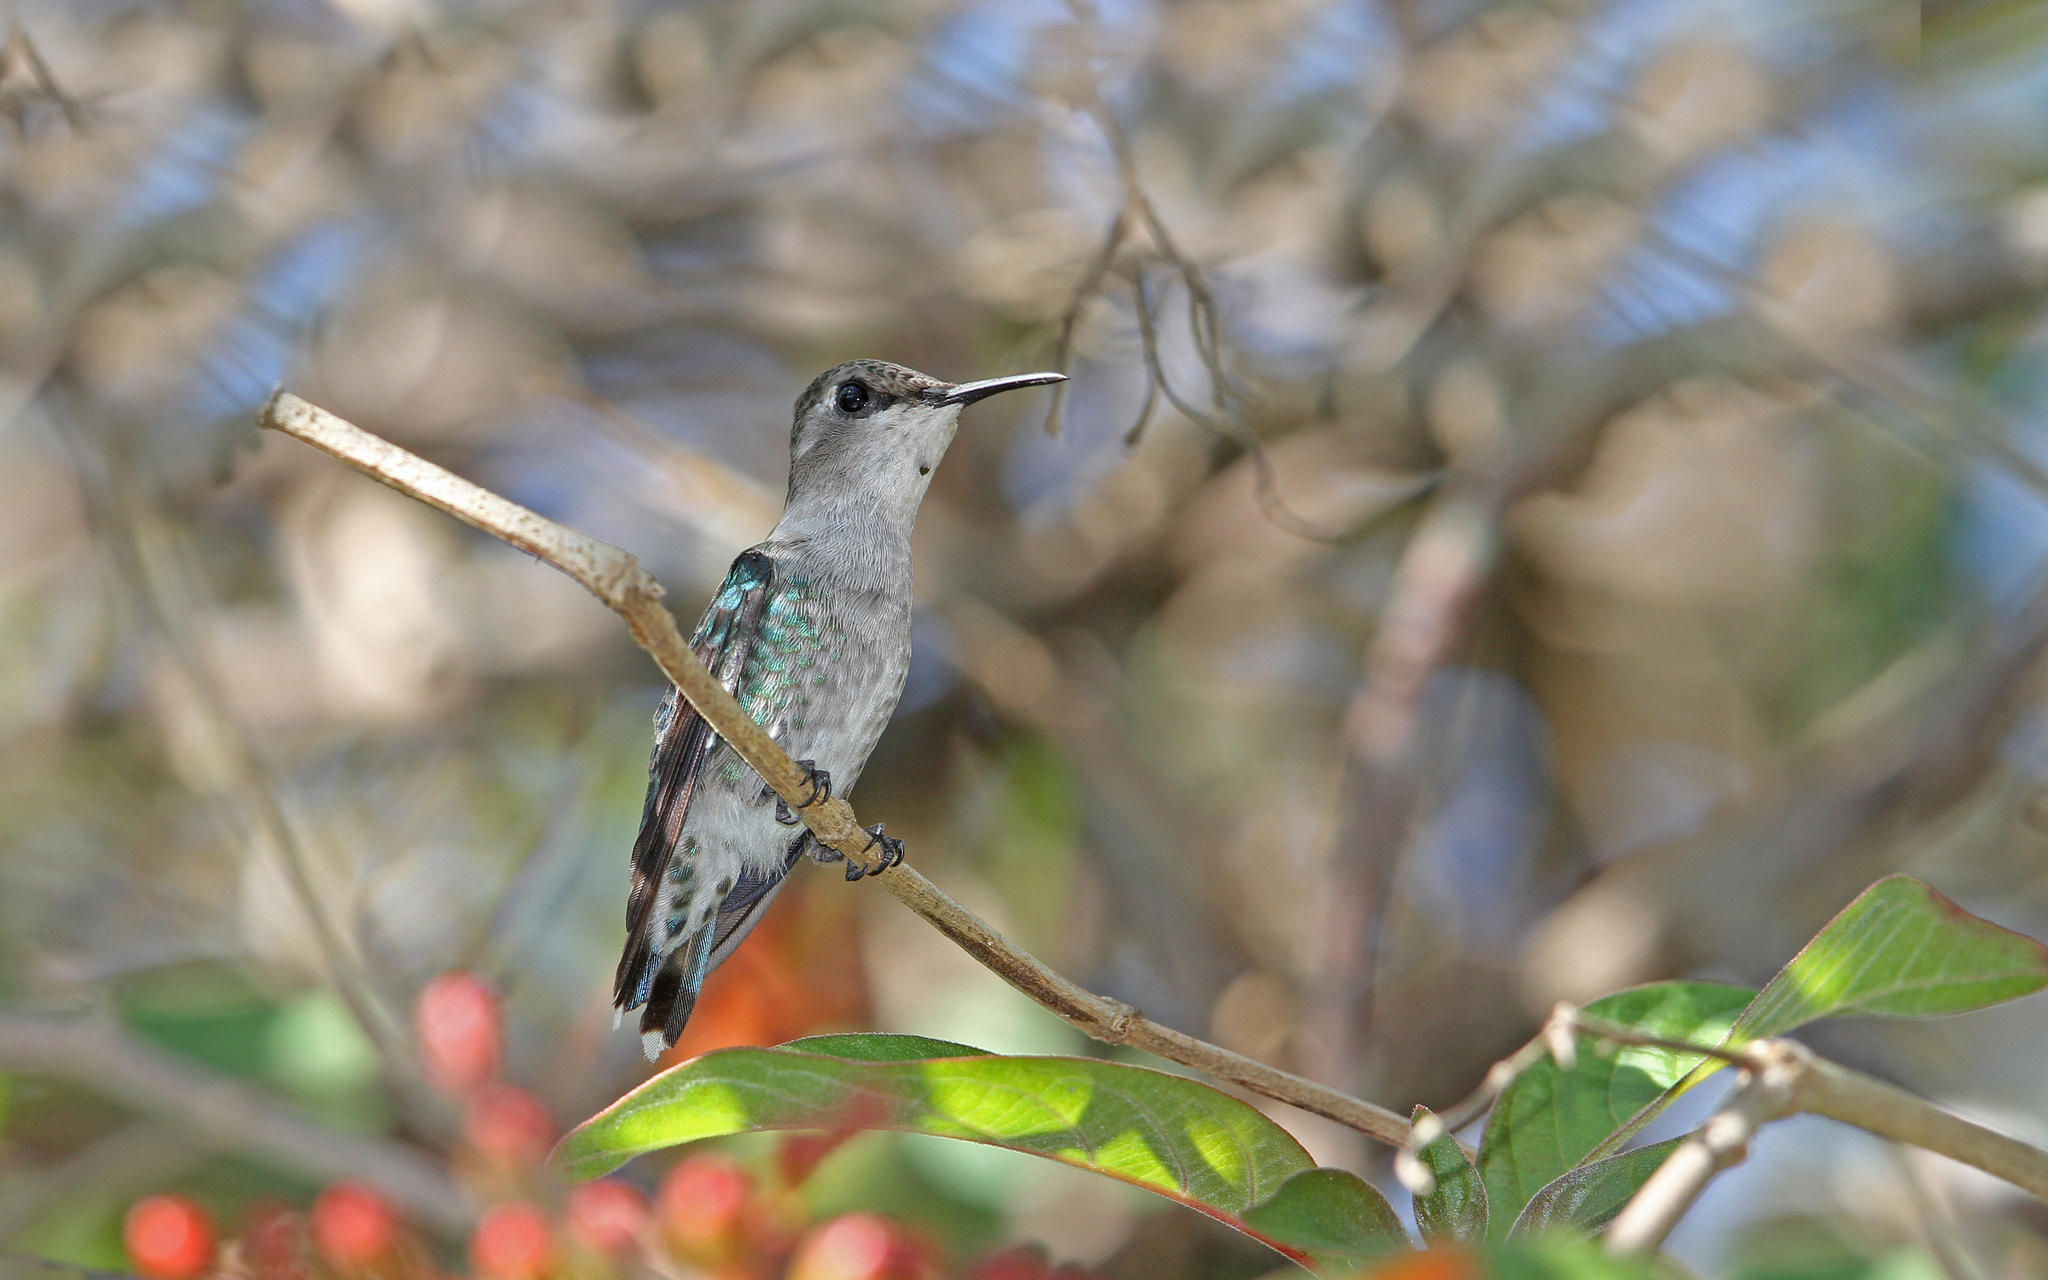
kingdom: Animalia
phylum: Chordata
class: Aves
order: Apodiformes
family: Trochilidae
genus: Mellisuga
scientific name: Mellisuga helenae
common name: Bee hummingbird
